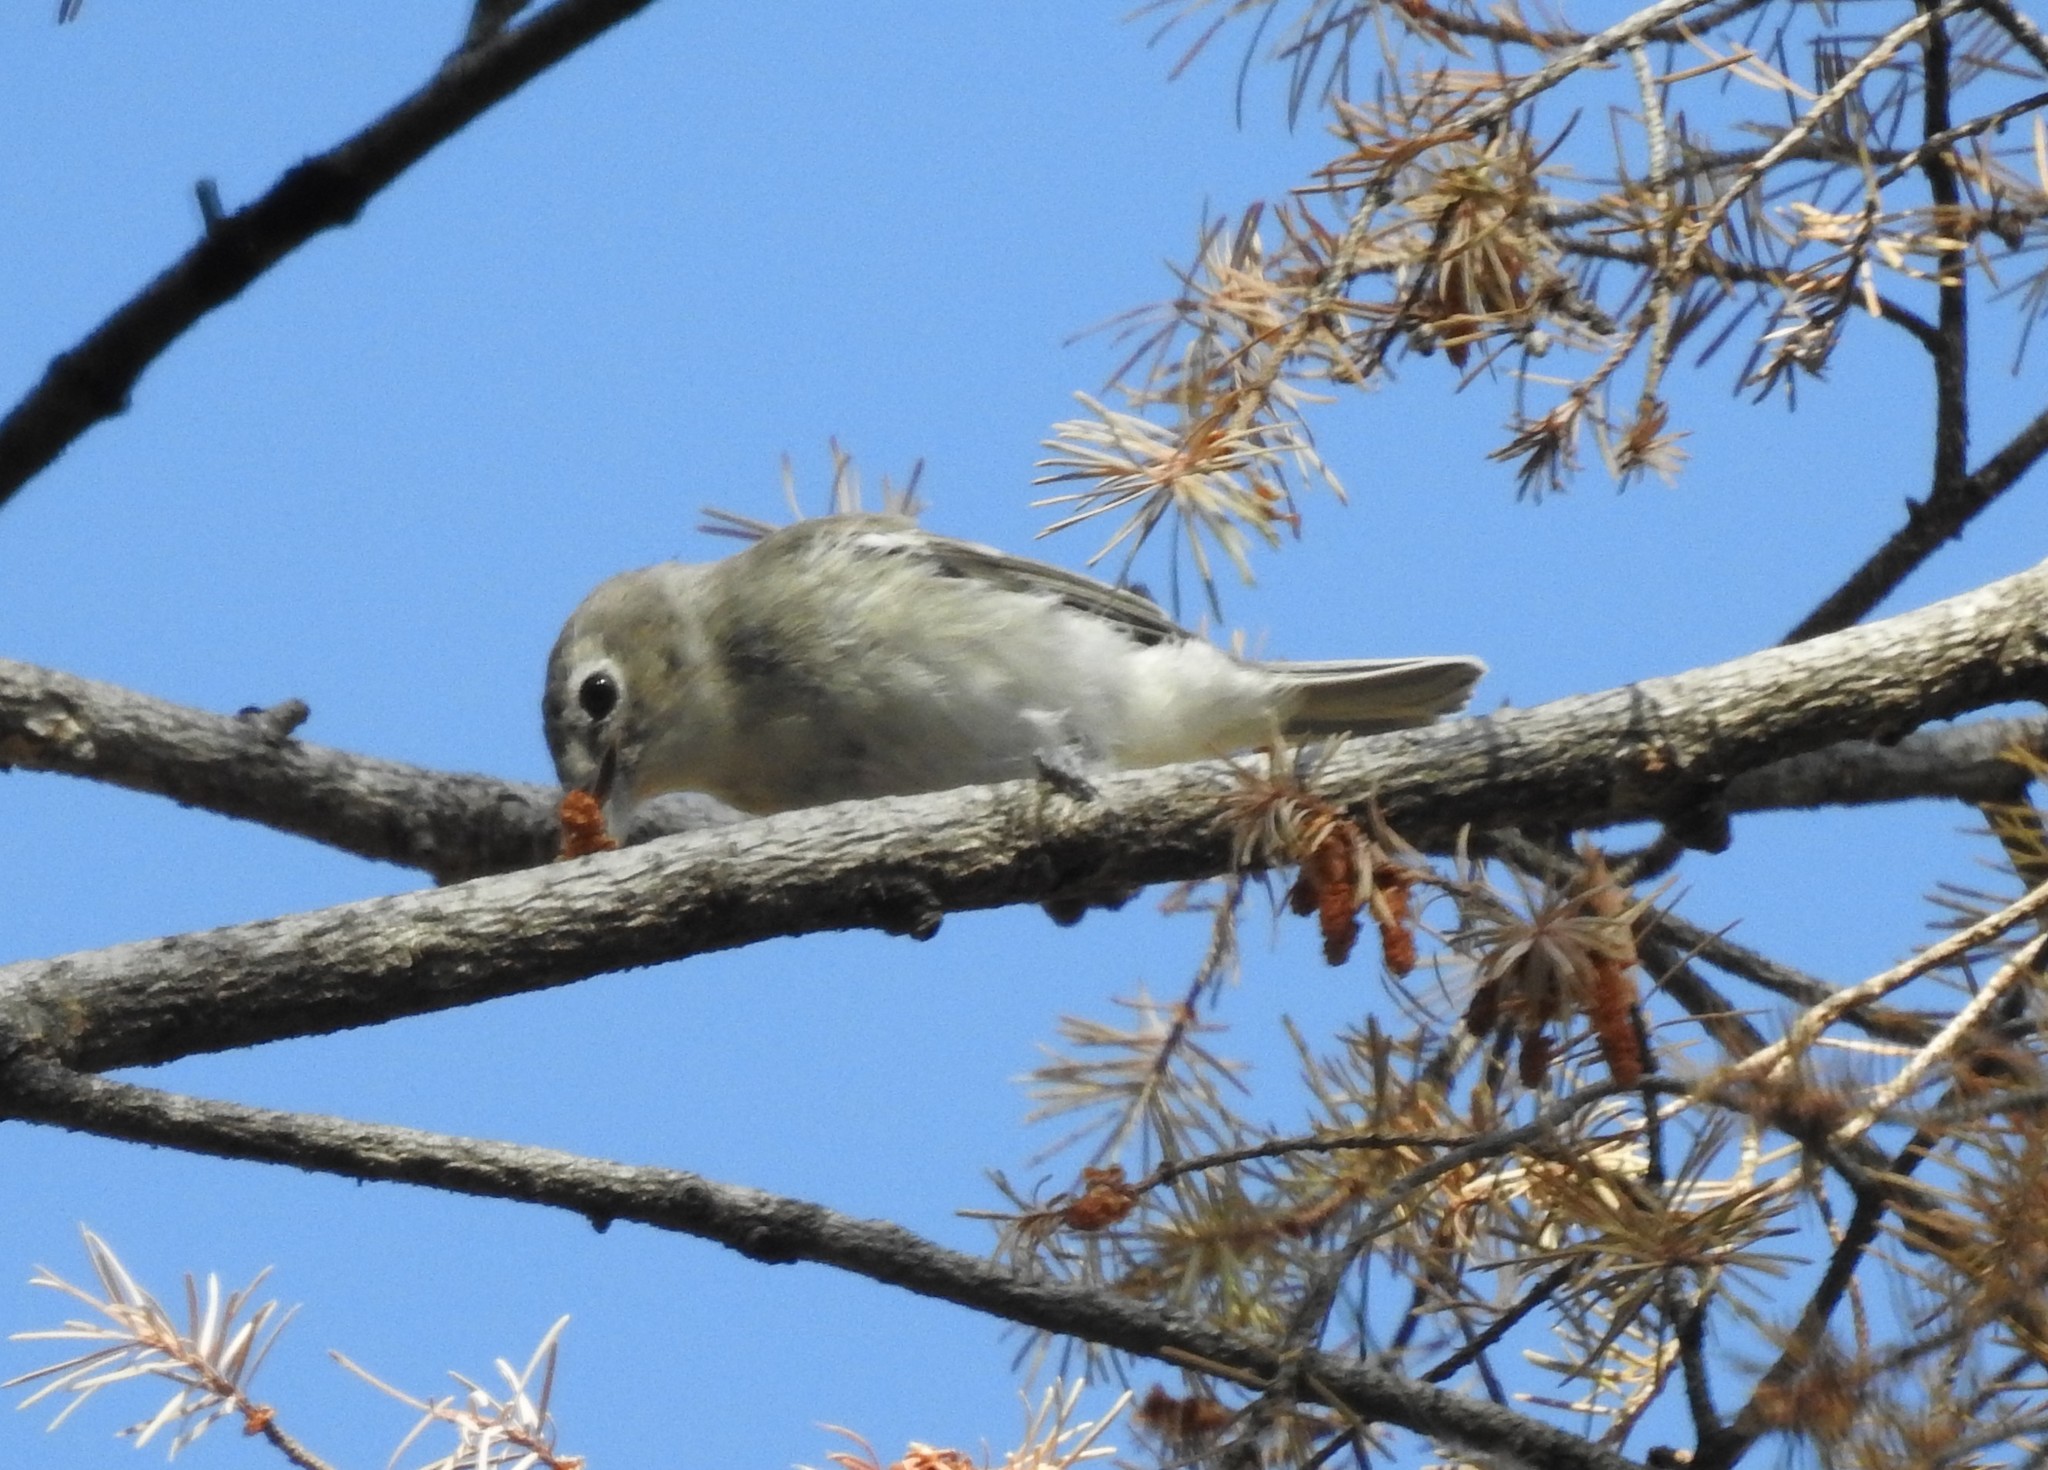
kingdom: Animalia
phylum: Chordata
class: Aves
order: Passeriformes
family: Vireonidae
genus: Vireo
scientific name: Vireo plumbeus
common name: Plumbeous vireo
